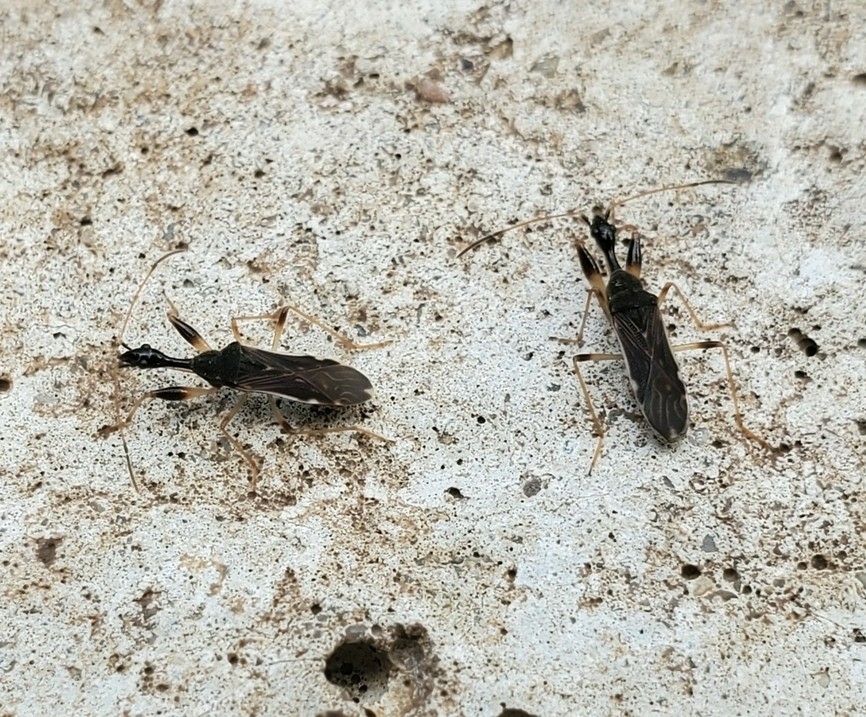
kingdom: Animalia
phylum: Arthropoda
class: Insecta
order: Hemiptera
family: Rhyparochromidae
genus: Myodocha
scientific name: Myodocha serripes
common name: Long-necked seed bug
